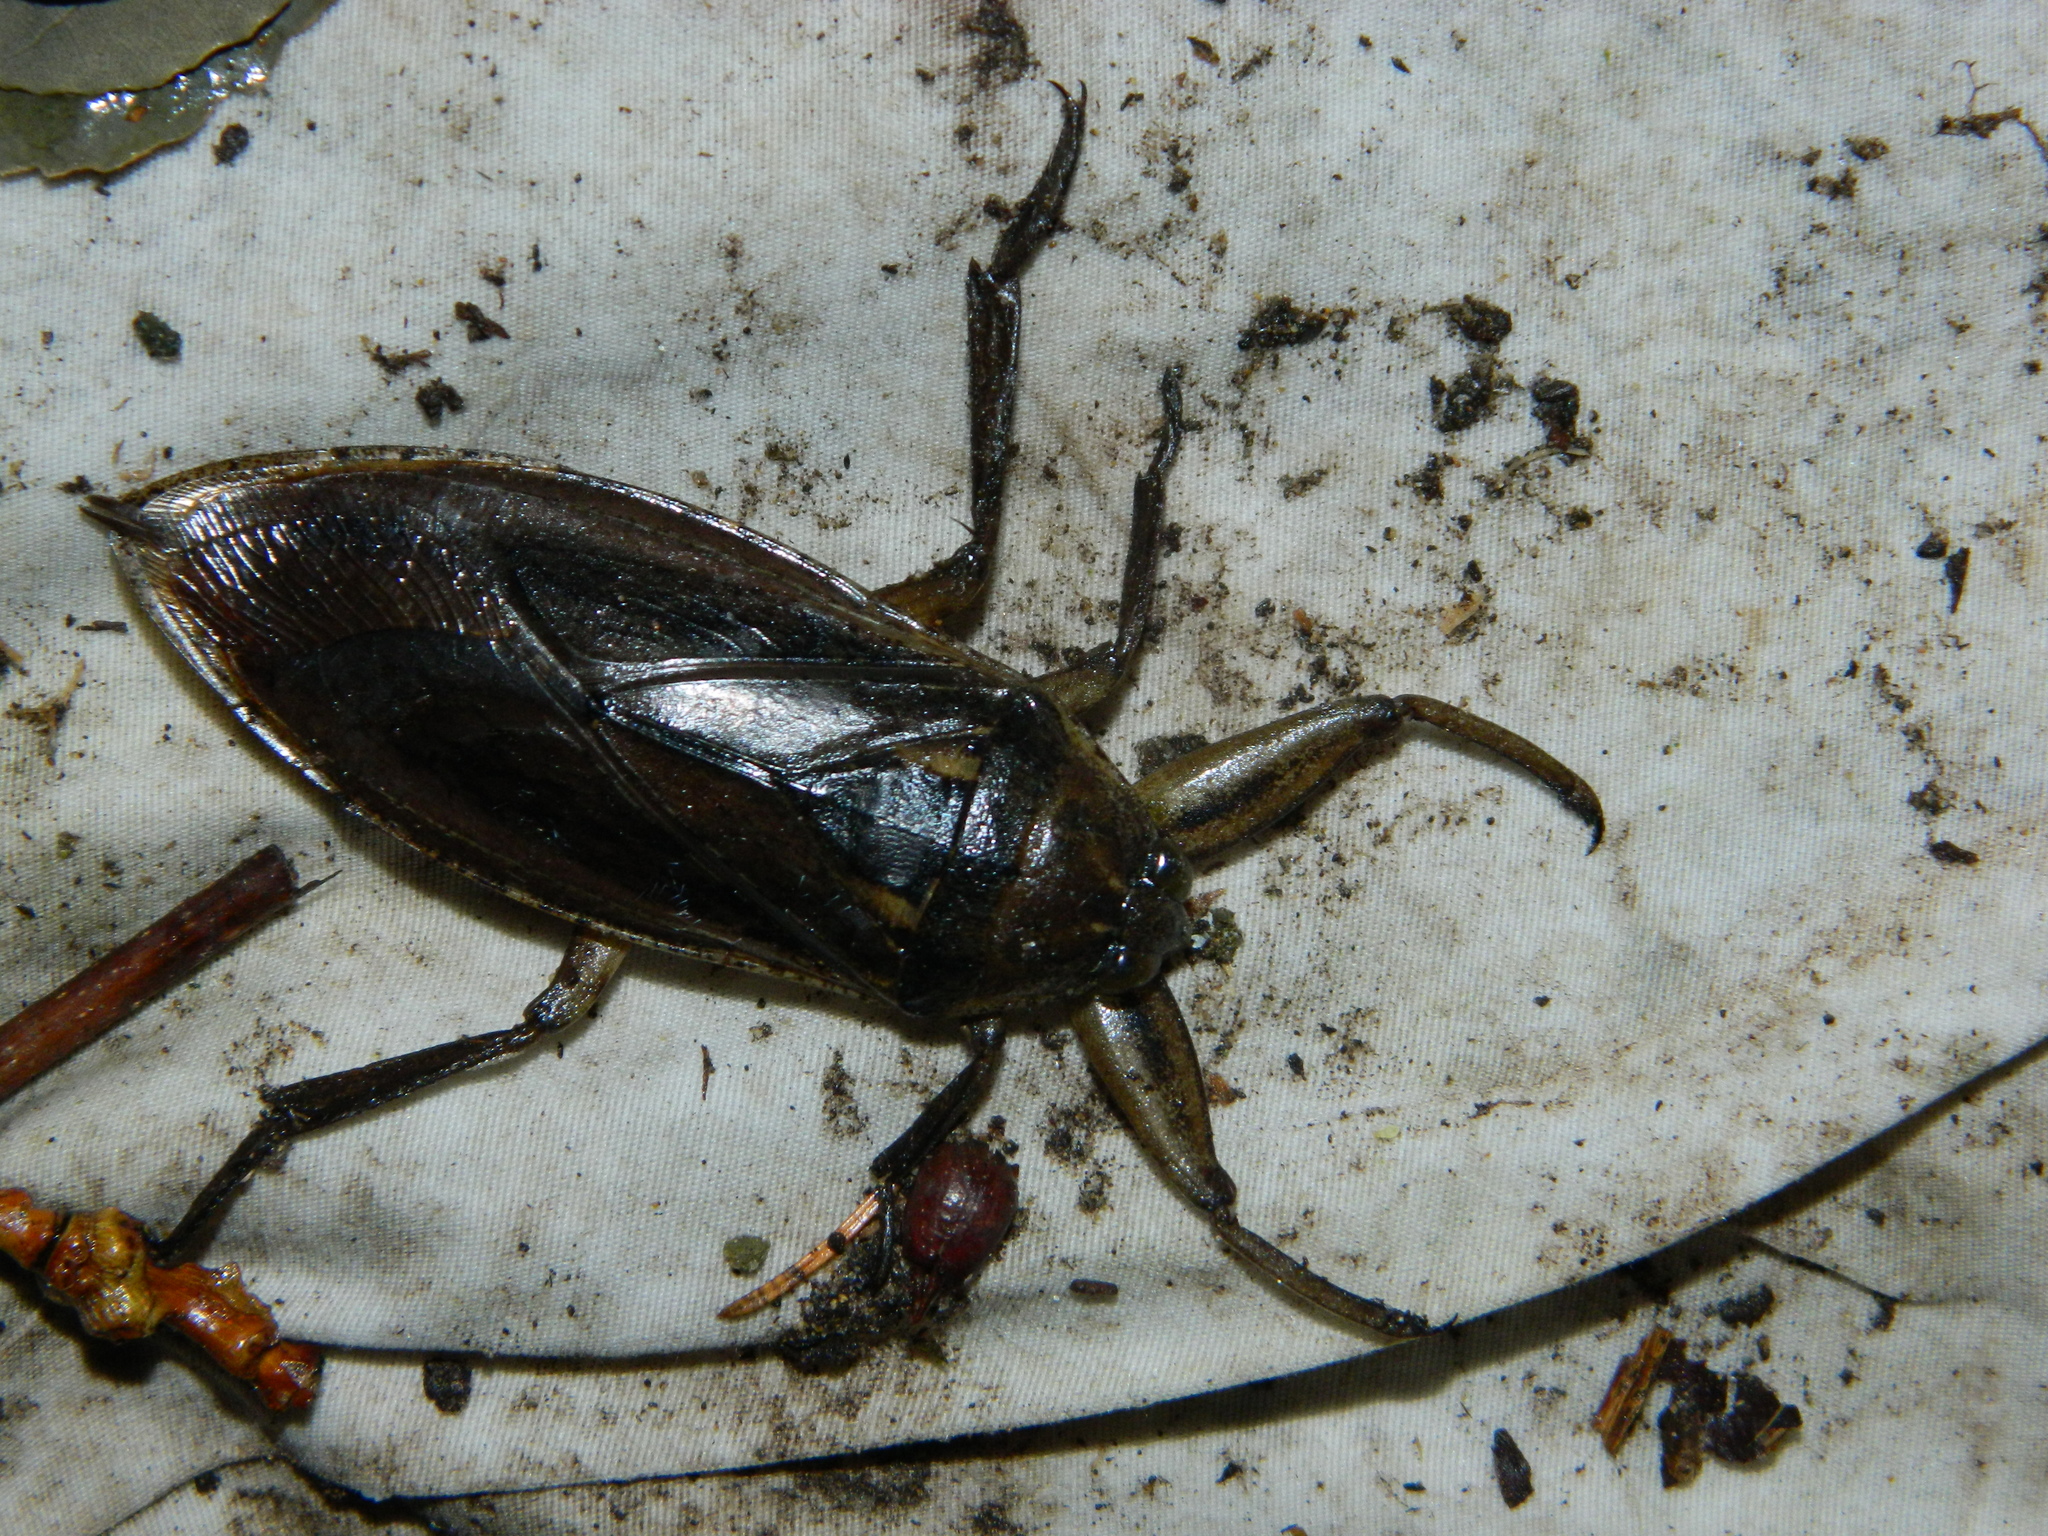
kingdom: Animalia
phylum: Arthropoda
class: Insecta
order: Hemiptera
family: Belostomatidae
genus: Lethocerus
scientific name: Lethocerus americanus
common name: Giant water bug
